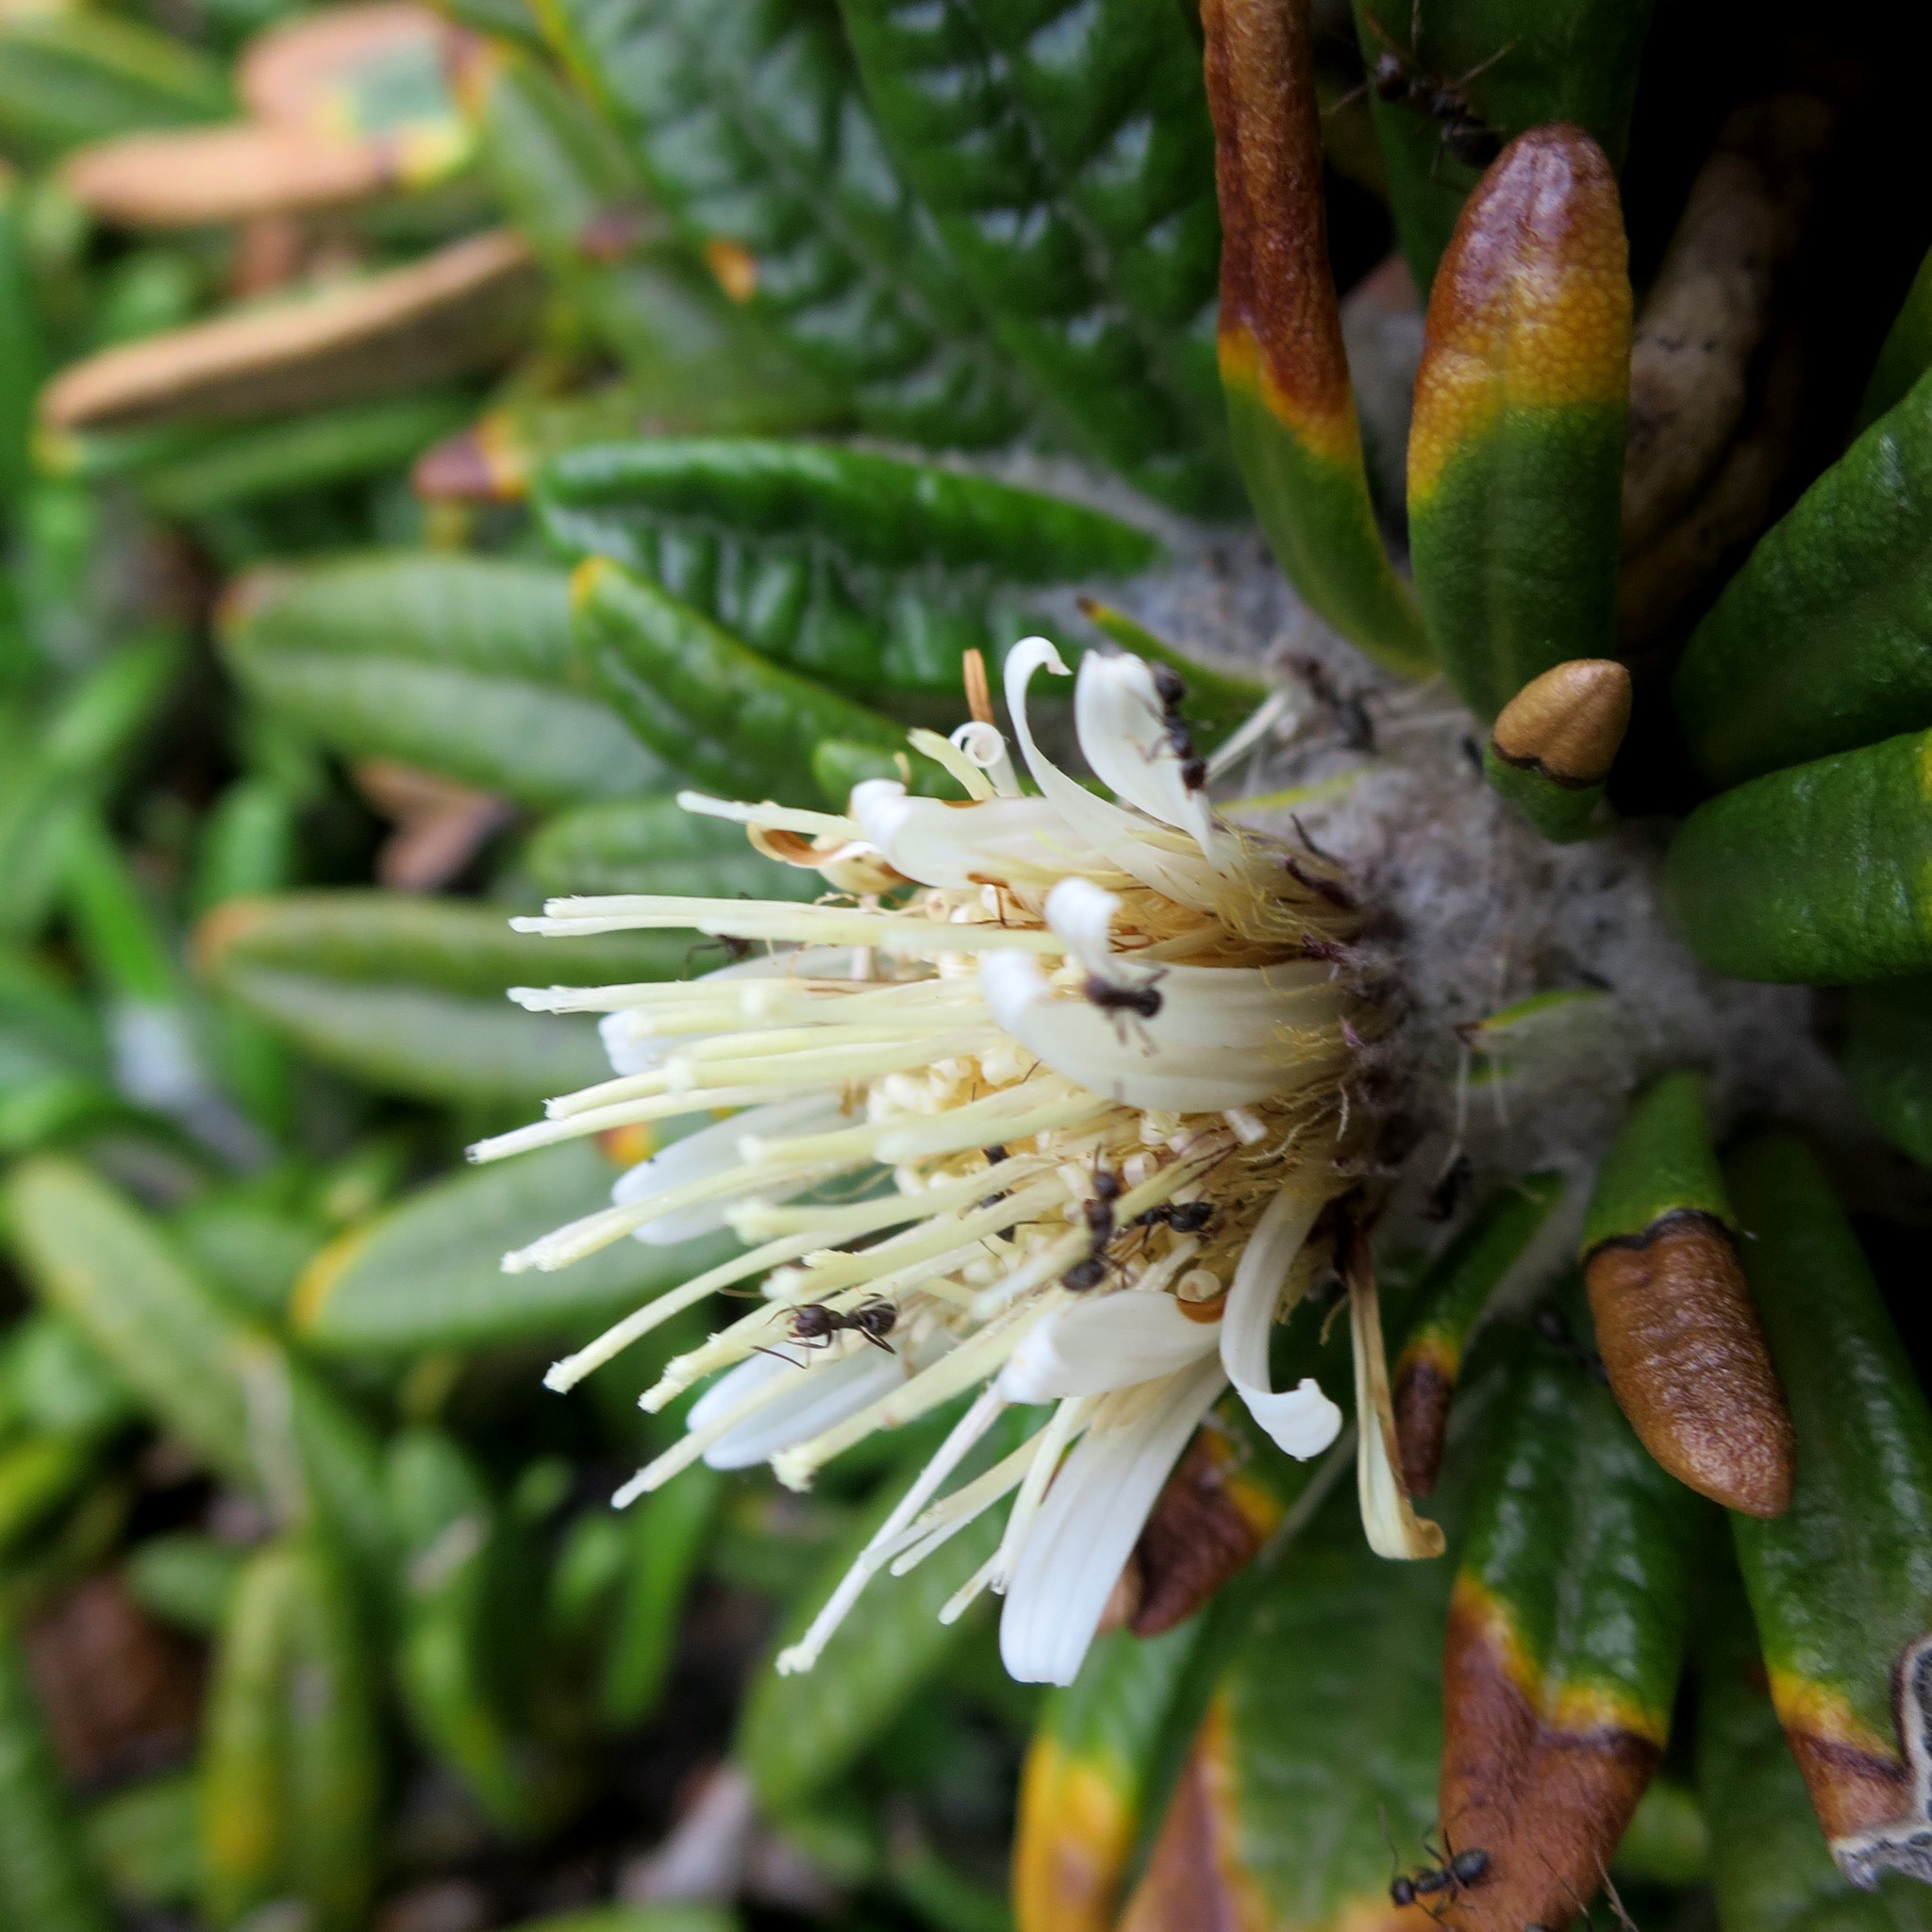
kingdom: Plantae
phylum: Tracheophyta
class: Magnoliopsida
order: Asterales
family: Asteraceae
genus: Oldenburgia
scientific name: Oldenburgia paradoxa
